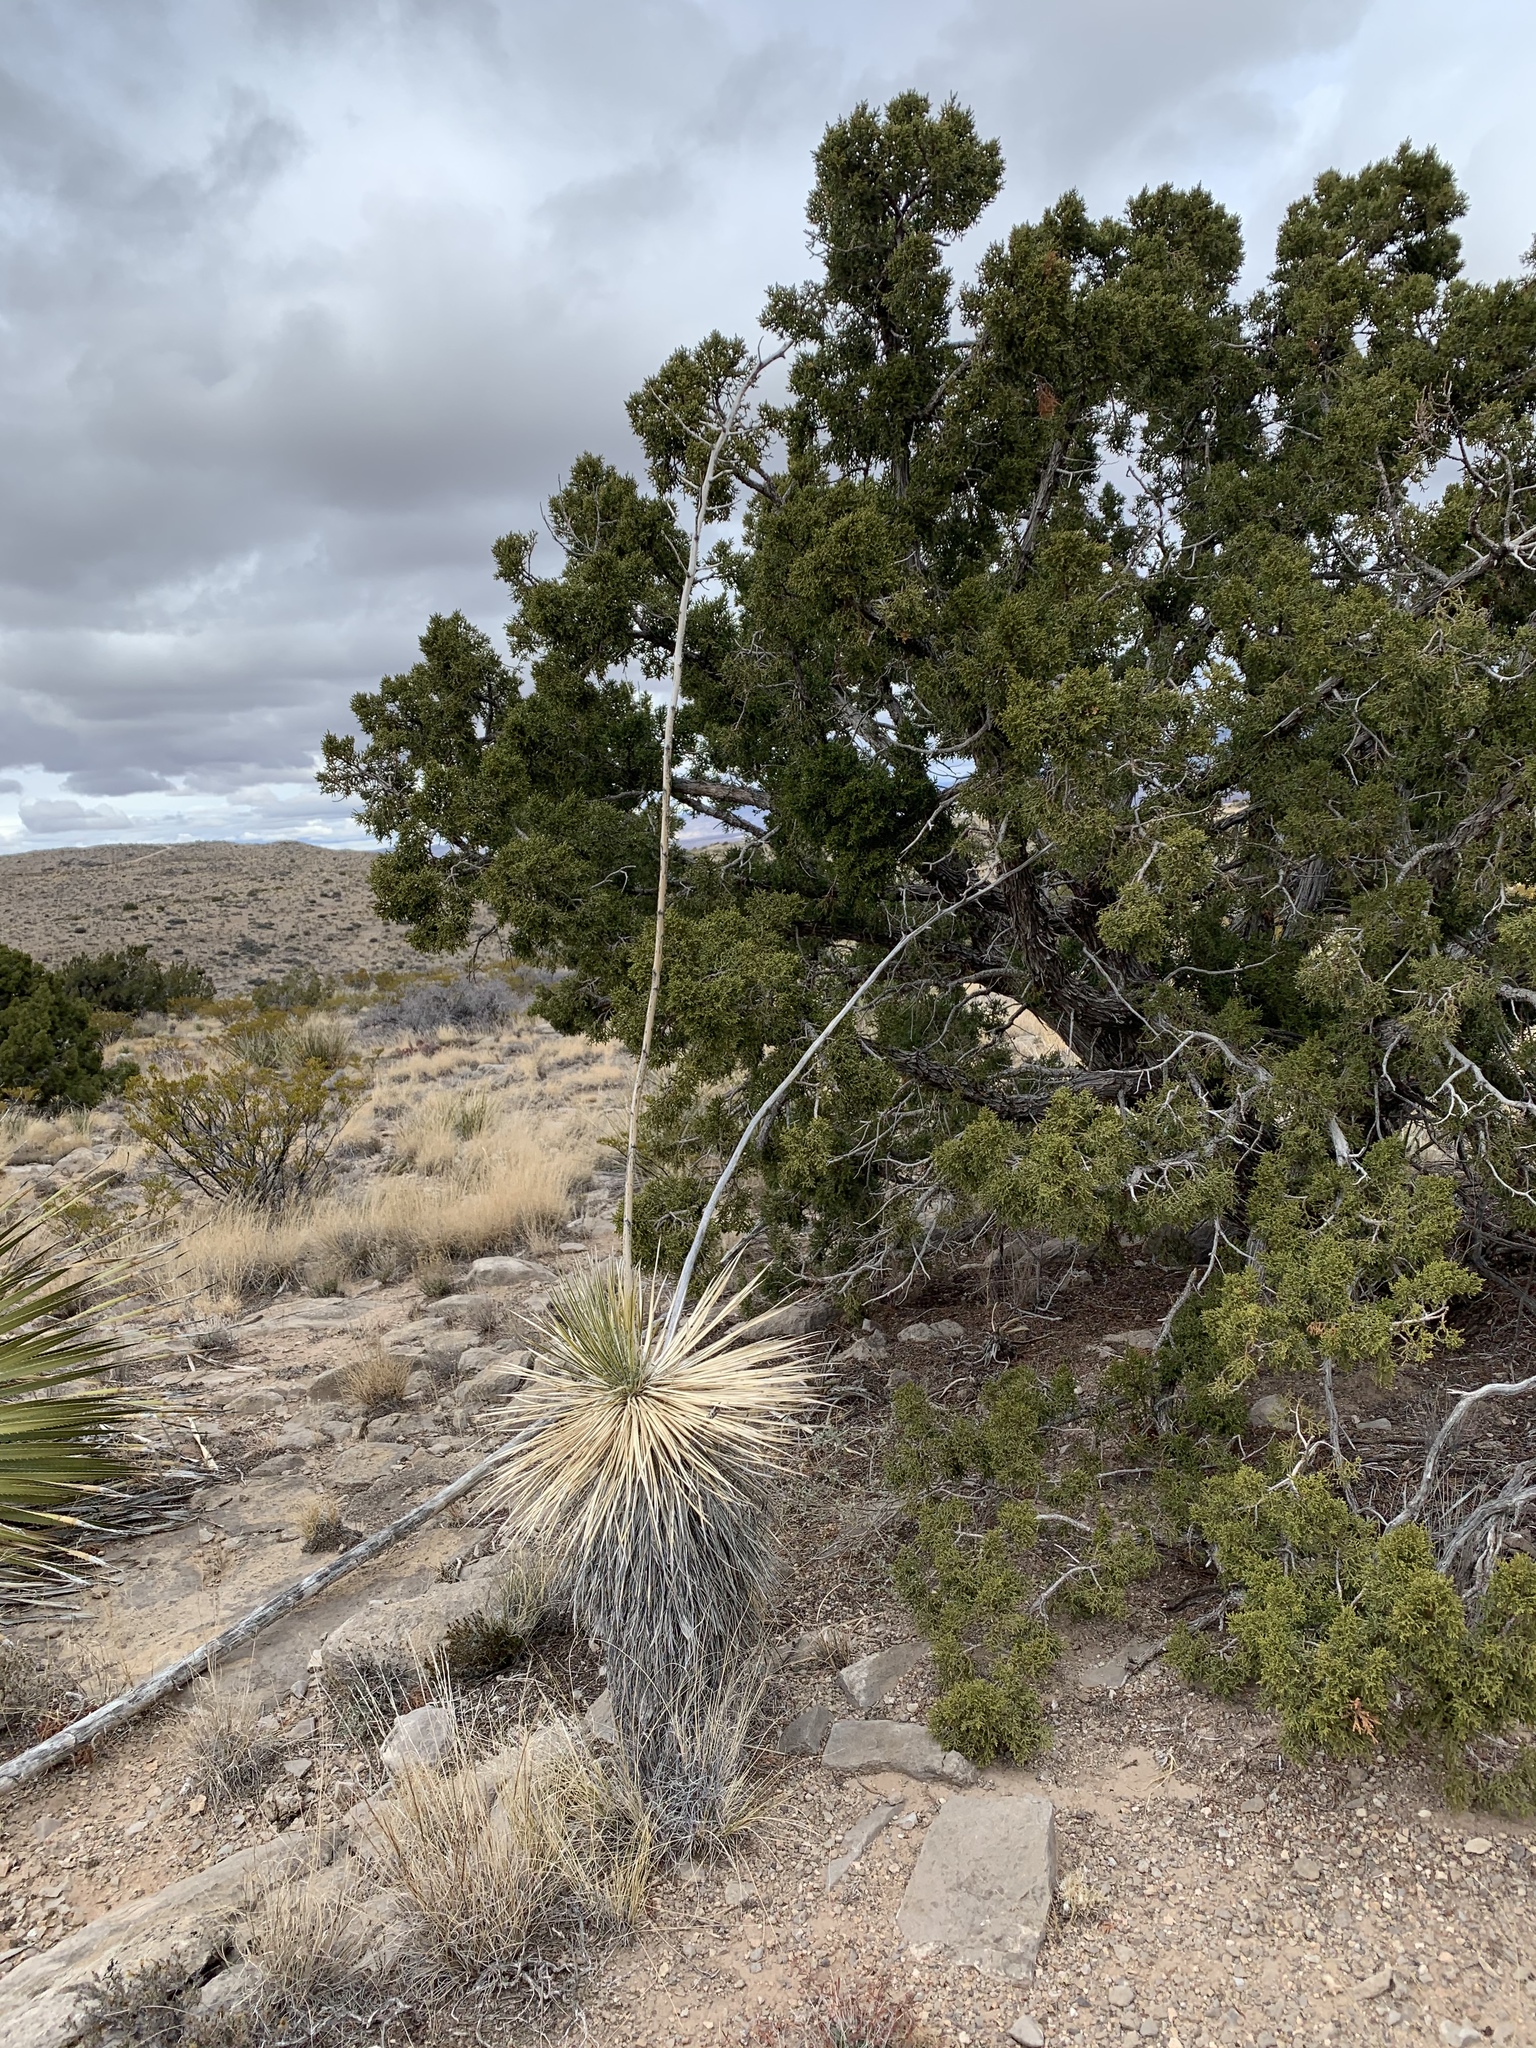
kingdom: Plantae
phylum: Tracheophyta
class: Liliopsida
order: Asparagales
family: Asparagaceae
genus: Yucca
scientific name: Yucca elata
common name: Palmella
